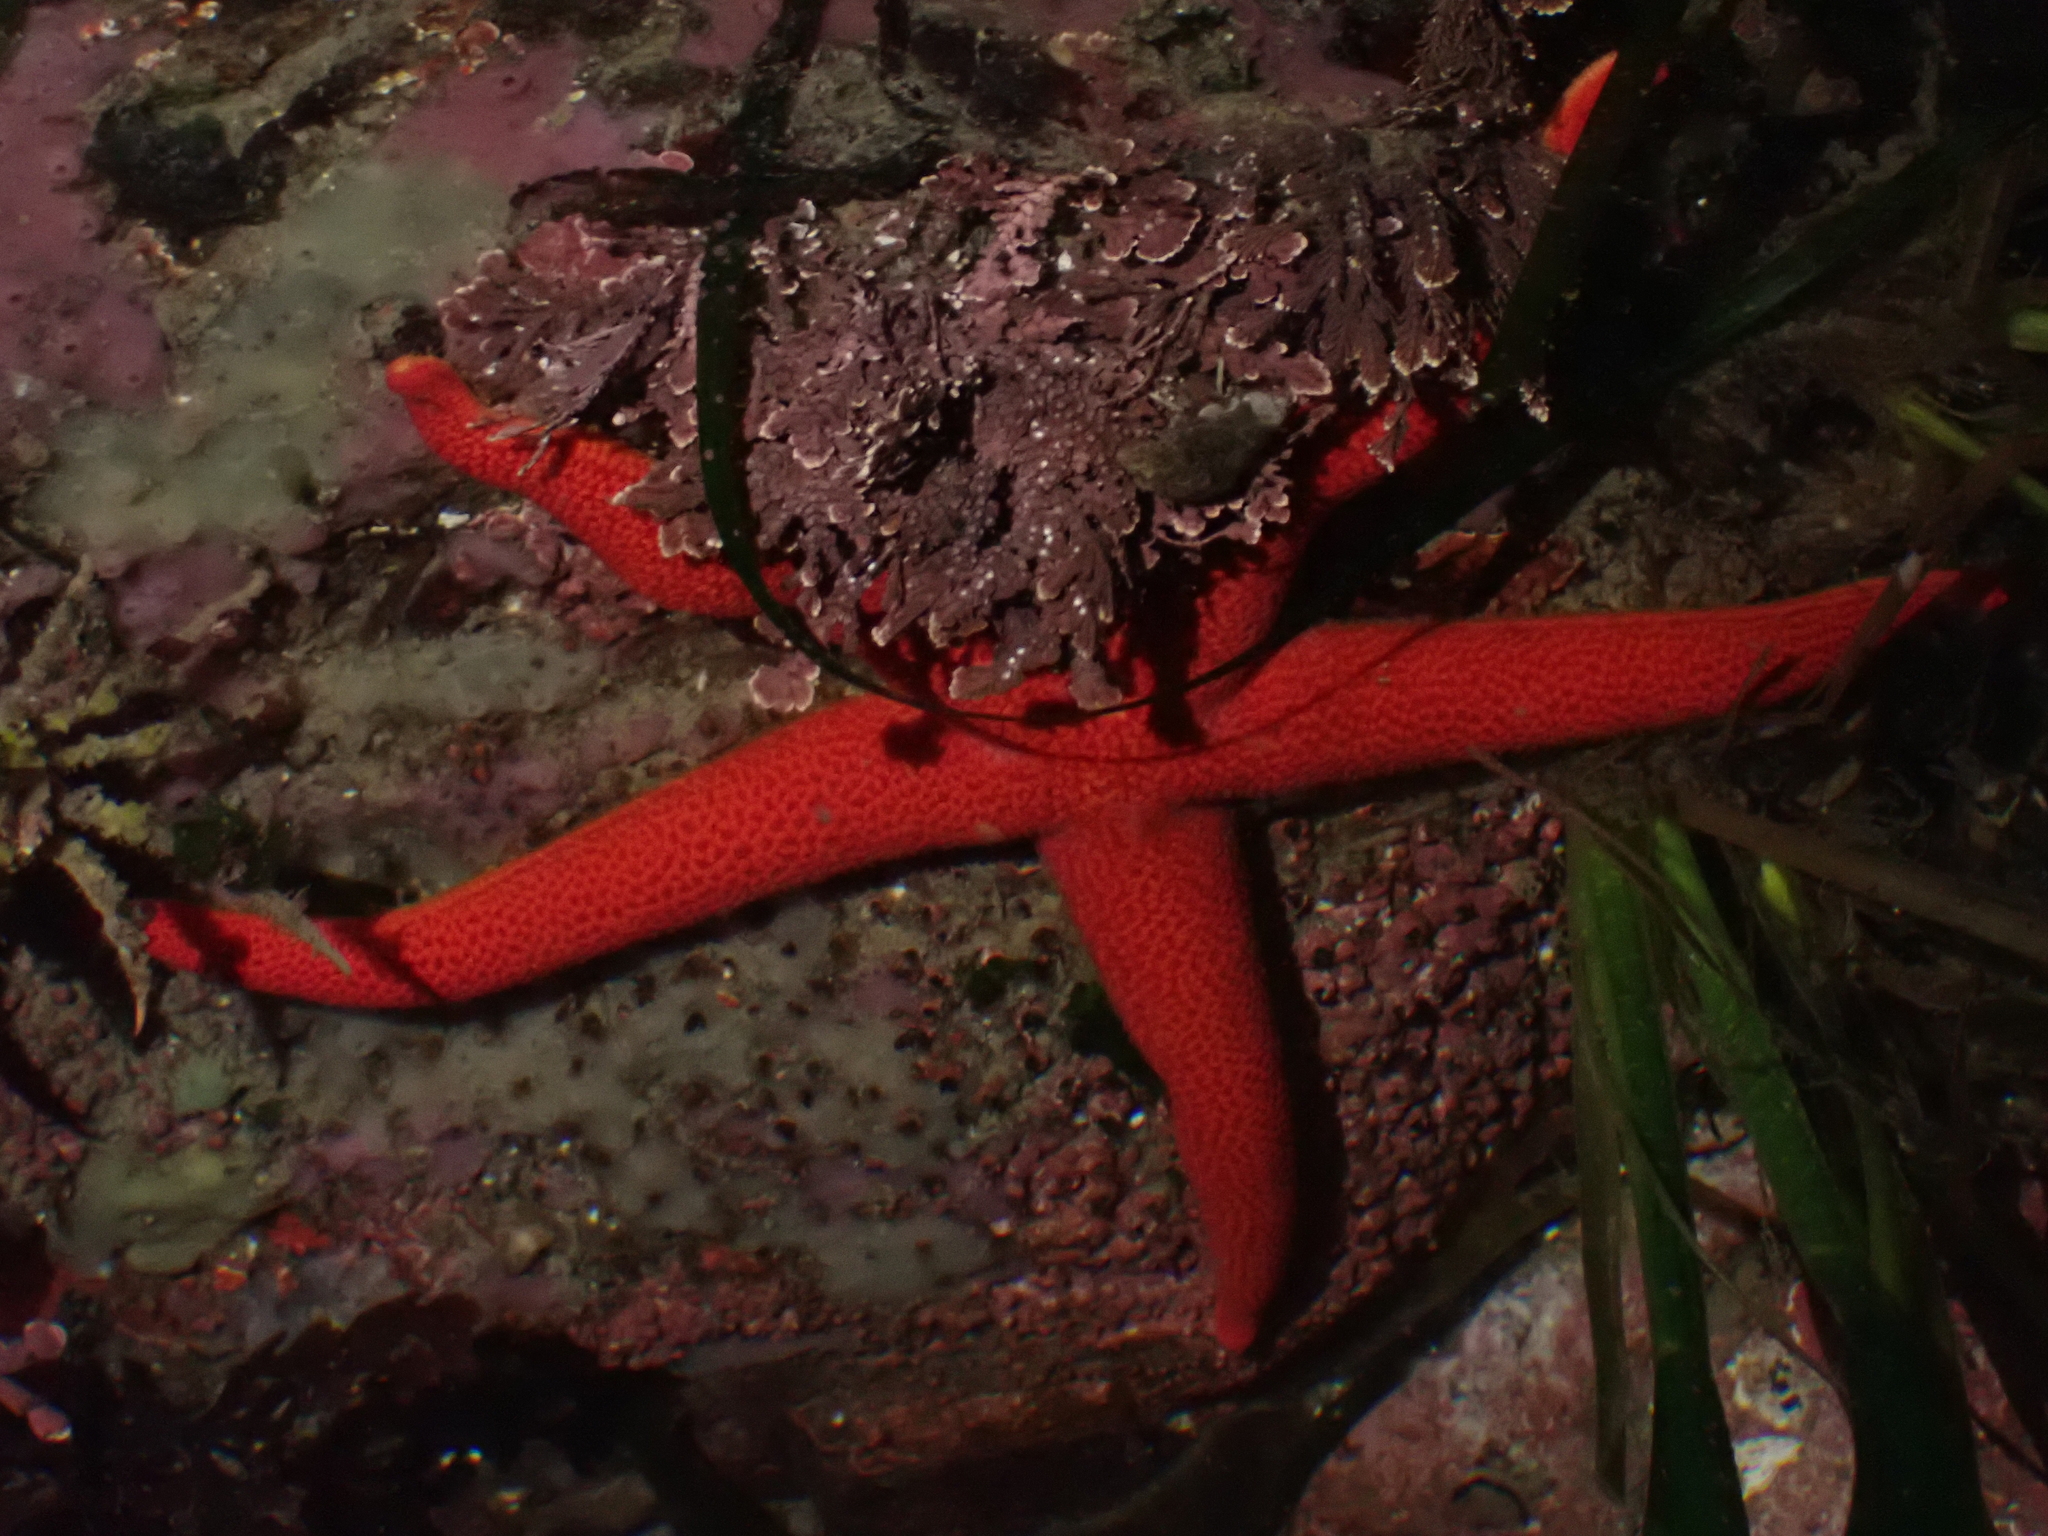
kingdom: Animalia
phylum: Echinodermata
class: Asteroidea
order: Spinulosida
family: Echinasteridae
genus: Henricia
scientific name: Henricia leviuscula
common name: Pacific blood star
